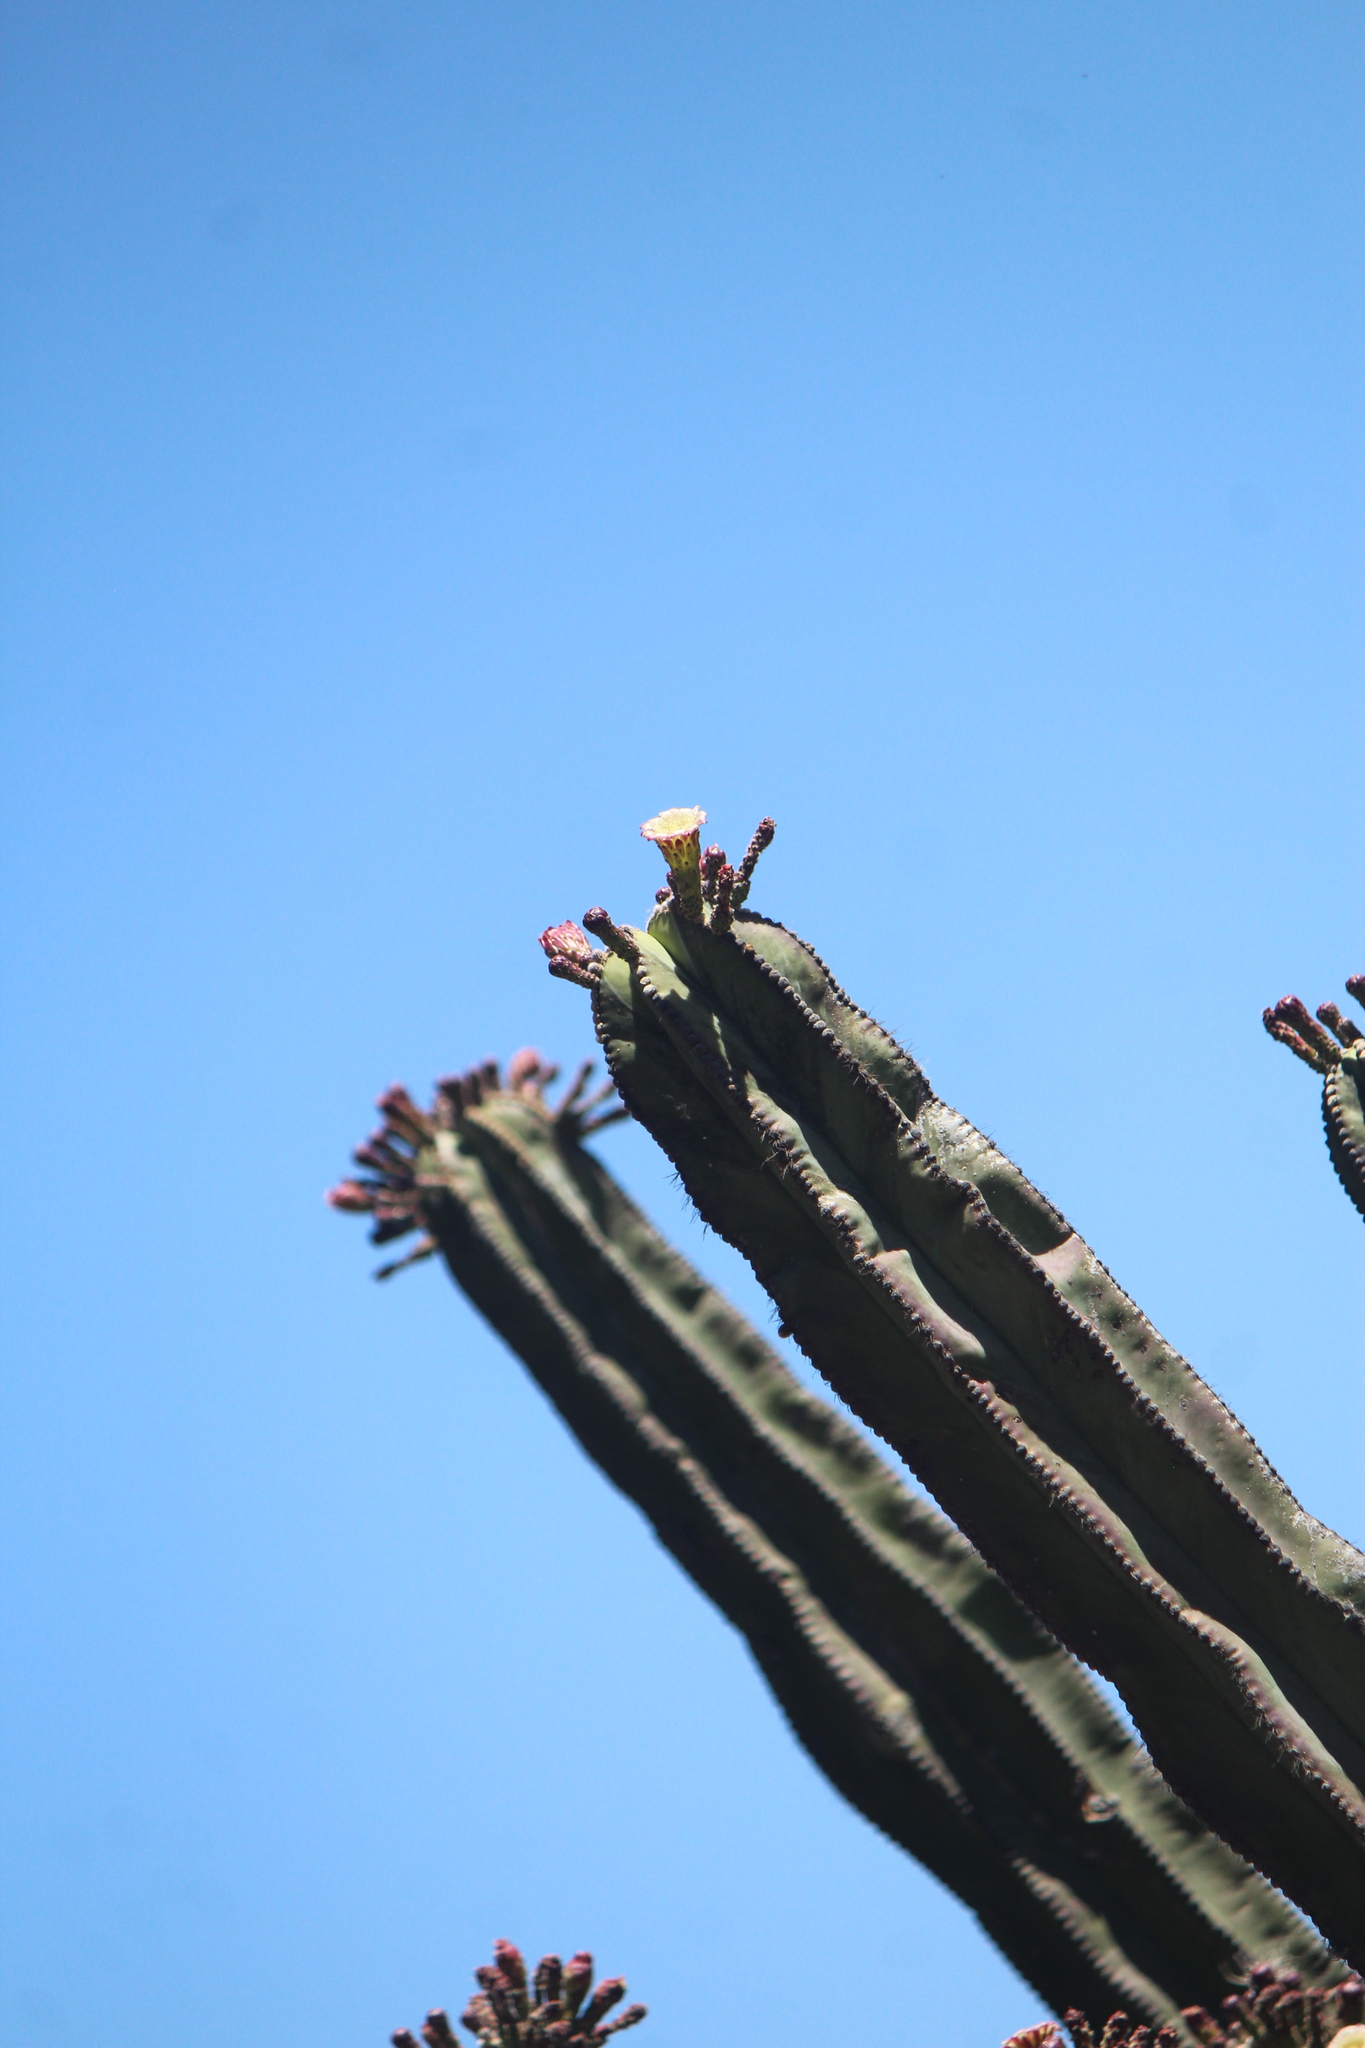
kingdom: Plantae
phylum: Tracheophyta
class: Magnoliopsida
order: Caryophyllales
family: Cactaceae
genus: Stenocereus
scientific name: Stenocereus dumortieri
